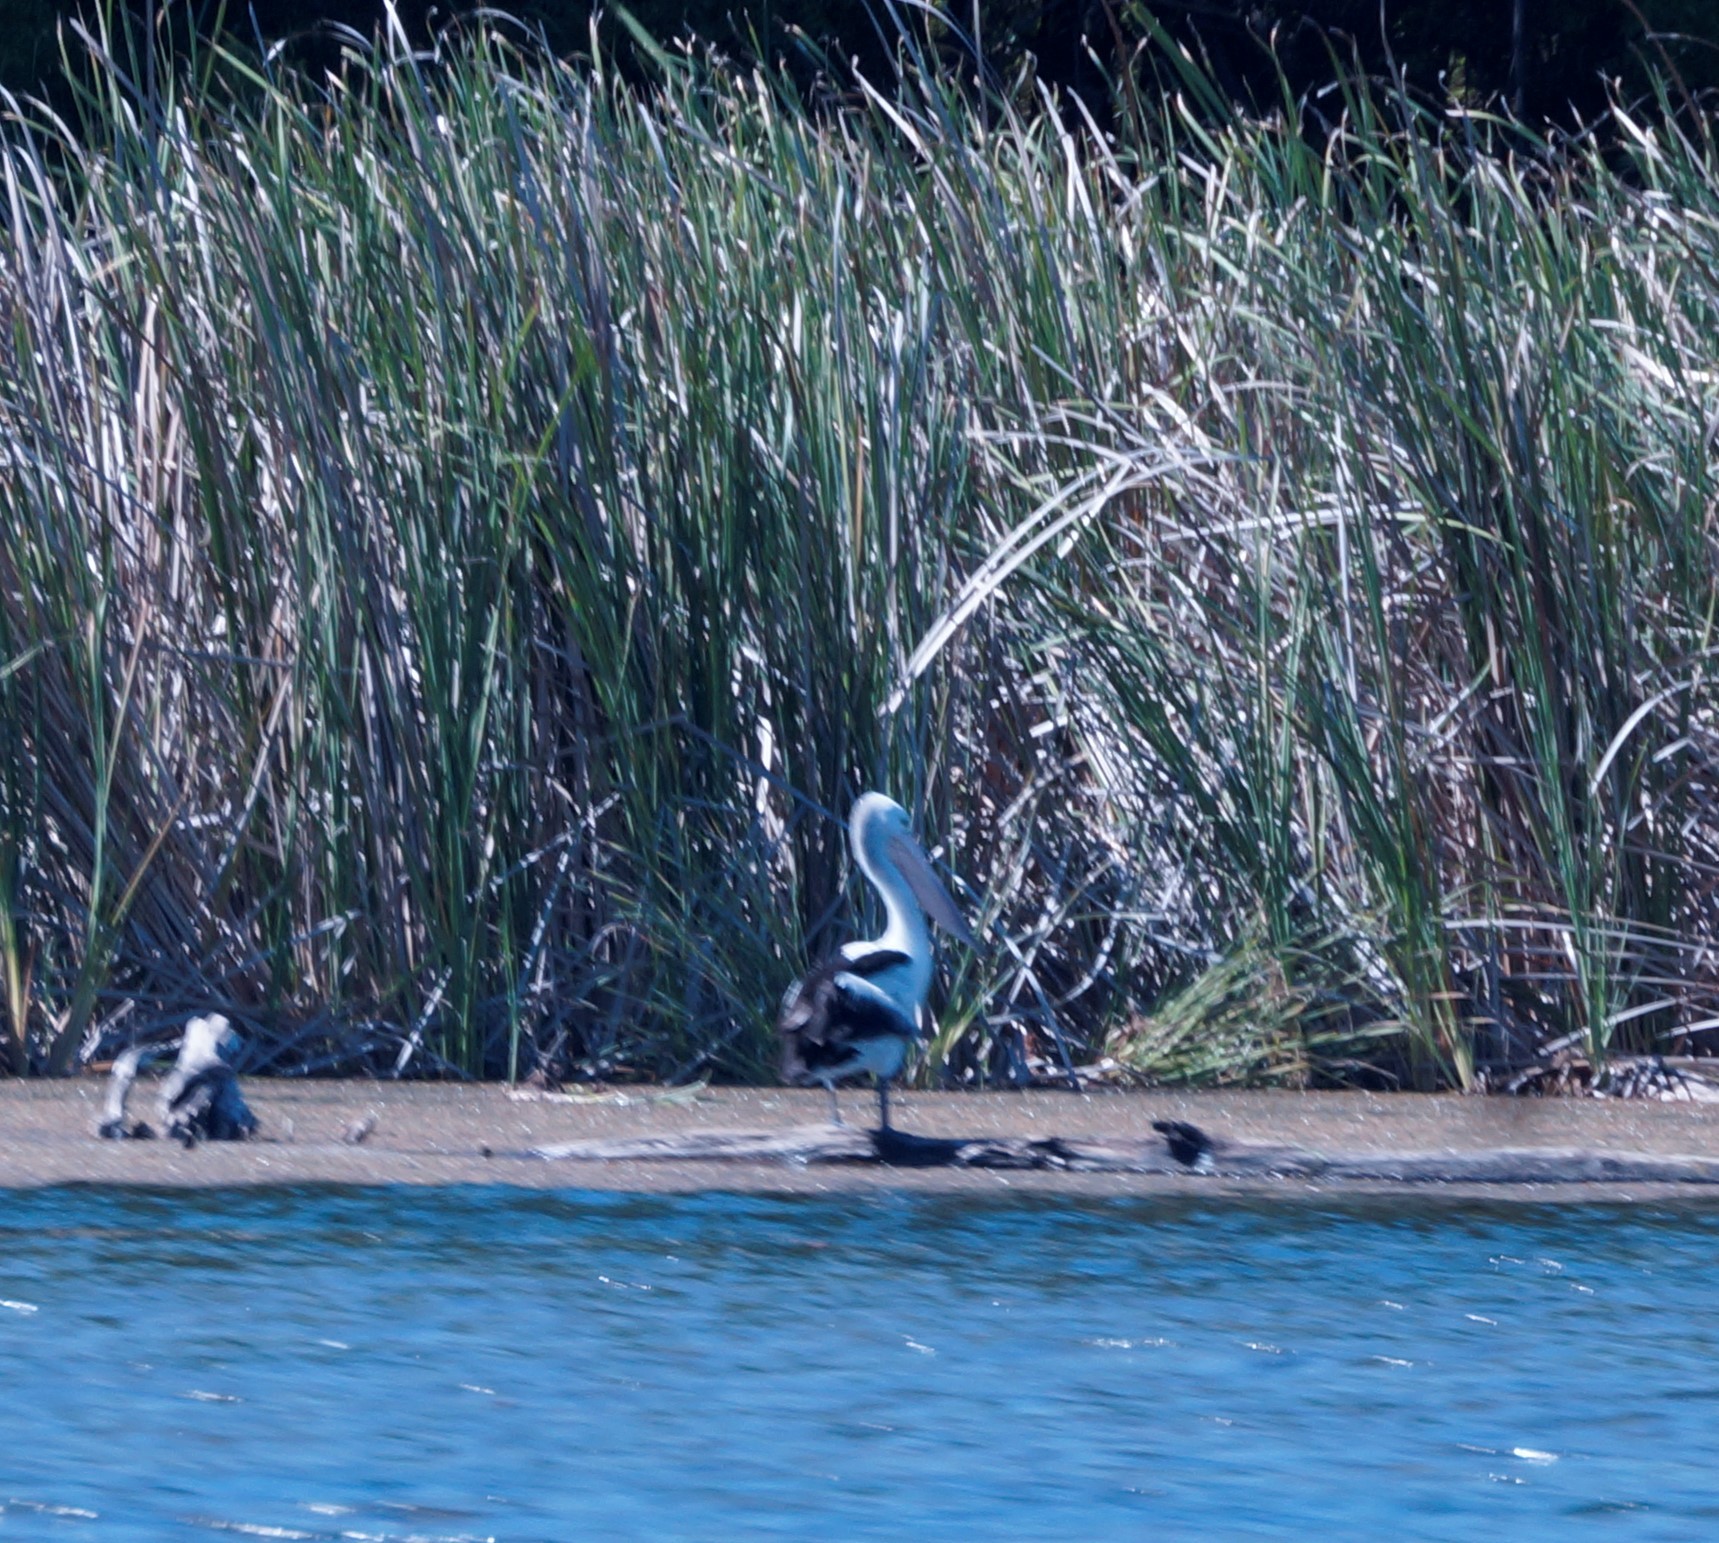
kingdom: Animalia
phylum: Chordata
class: Aves
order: Pelecaniformes
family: Pelecanidae
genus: Pelecanus
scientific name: Pelecanus conspicillatus
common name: Australian pelican
